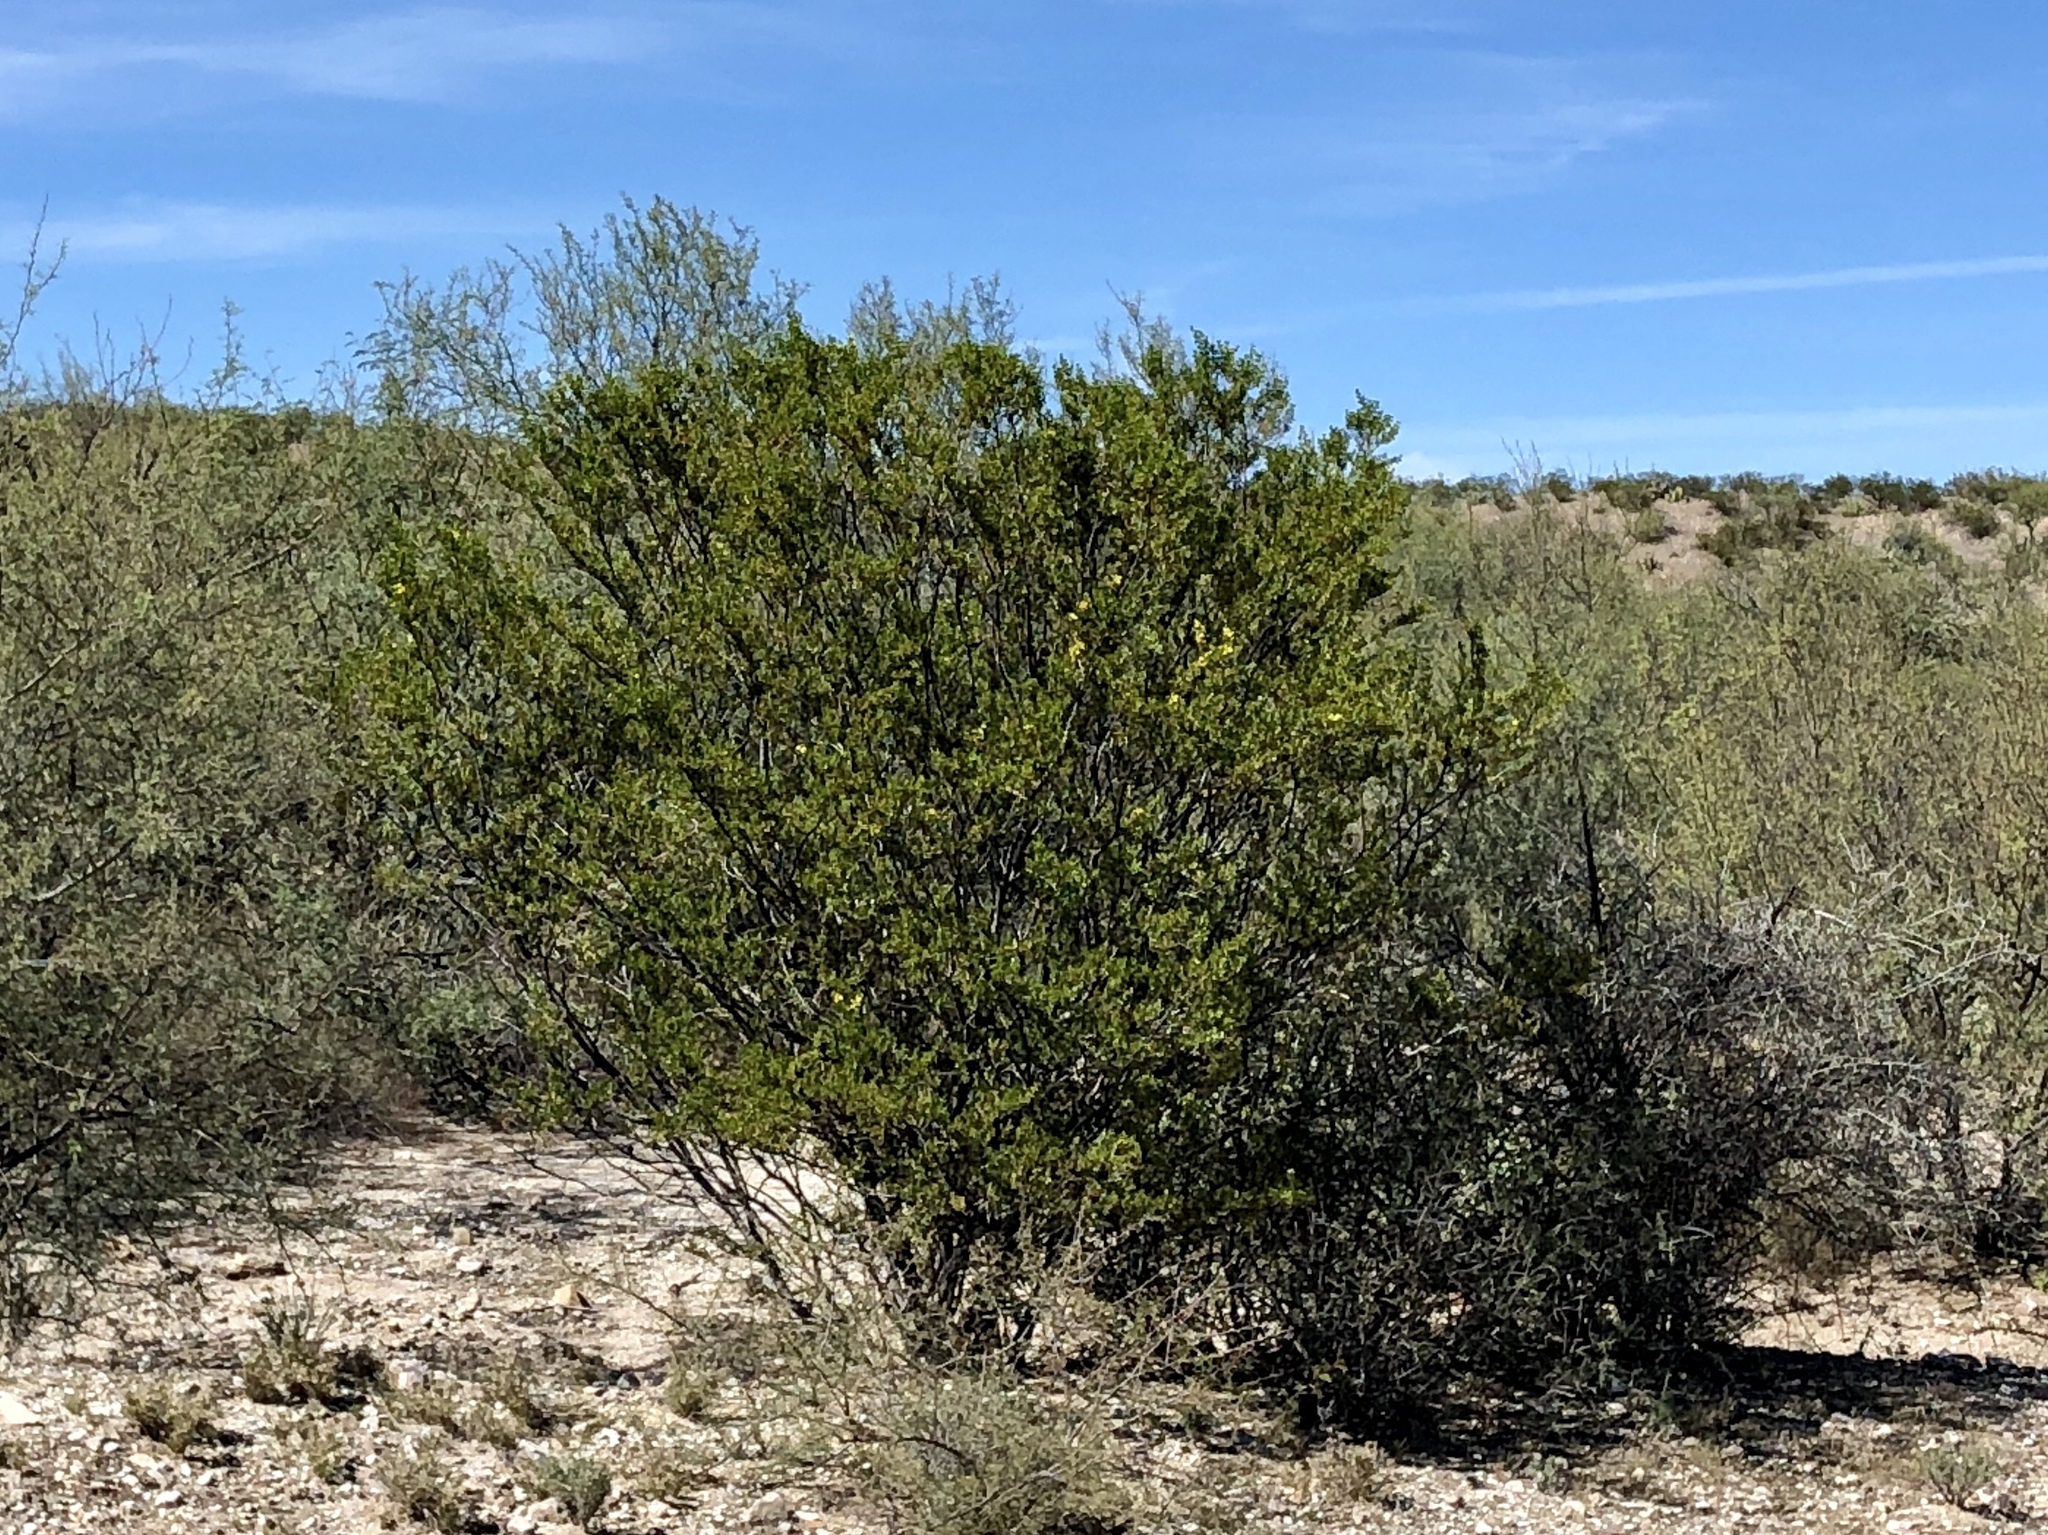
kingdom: Plantae
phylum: Tracheophyta
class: Magnoliopsida
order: Zygophyllales
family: Zygophyllaceae
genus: Larrea
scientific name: Larrea tridentata
